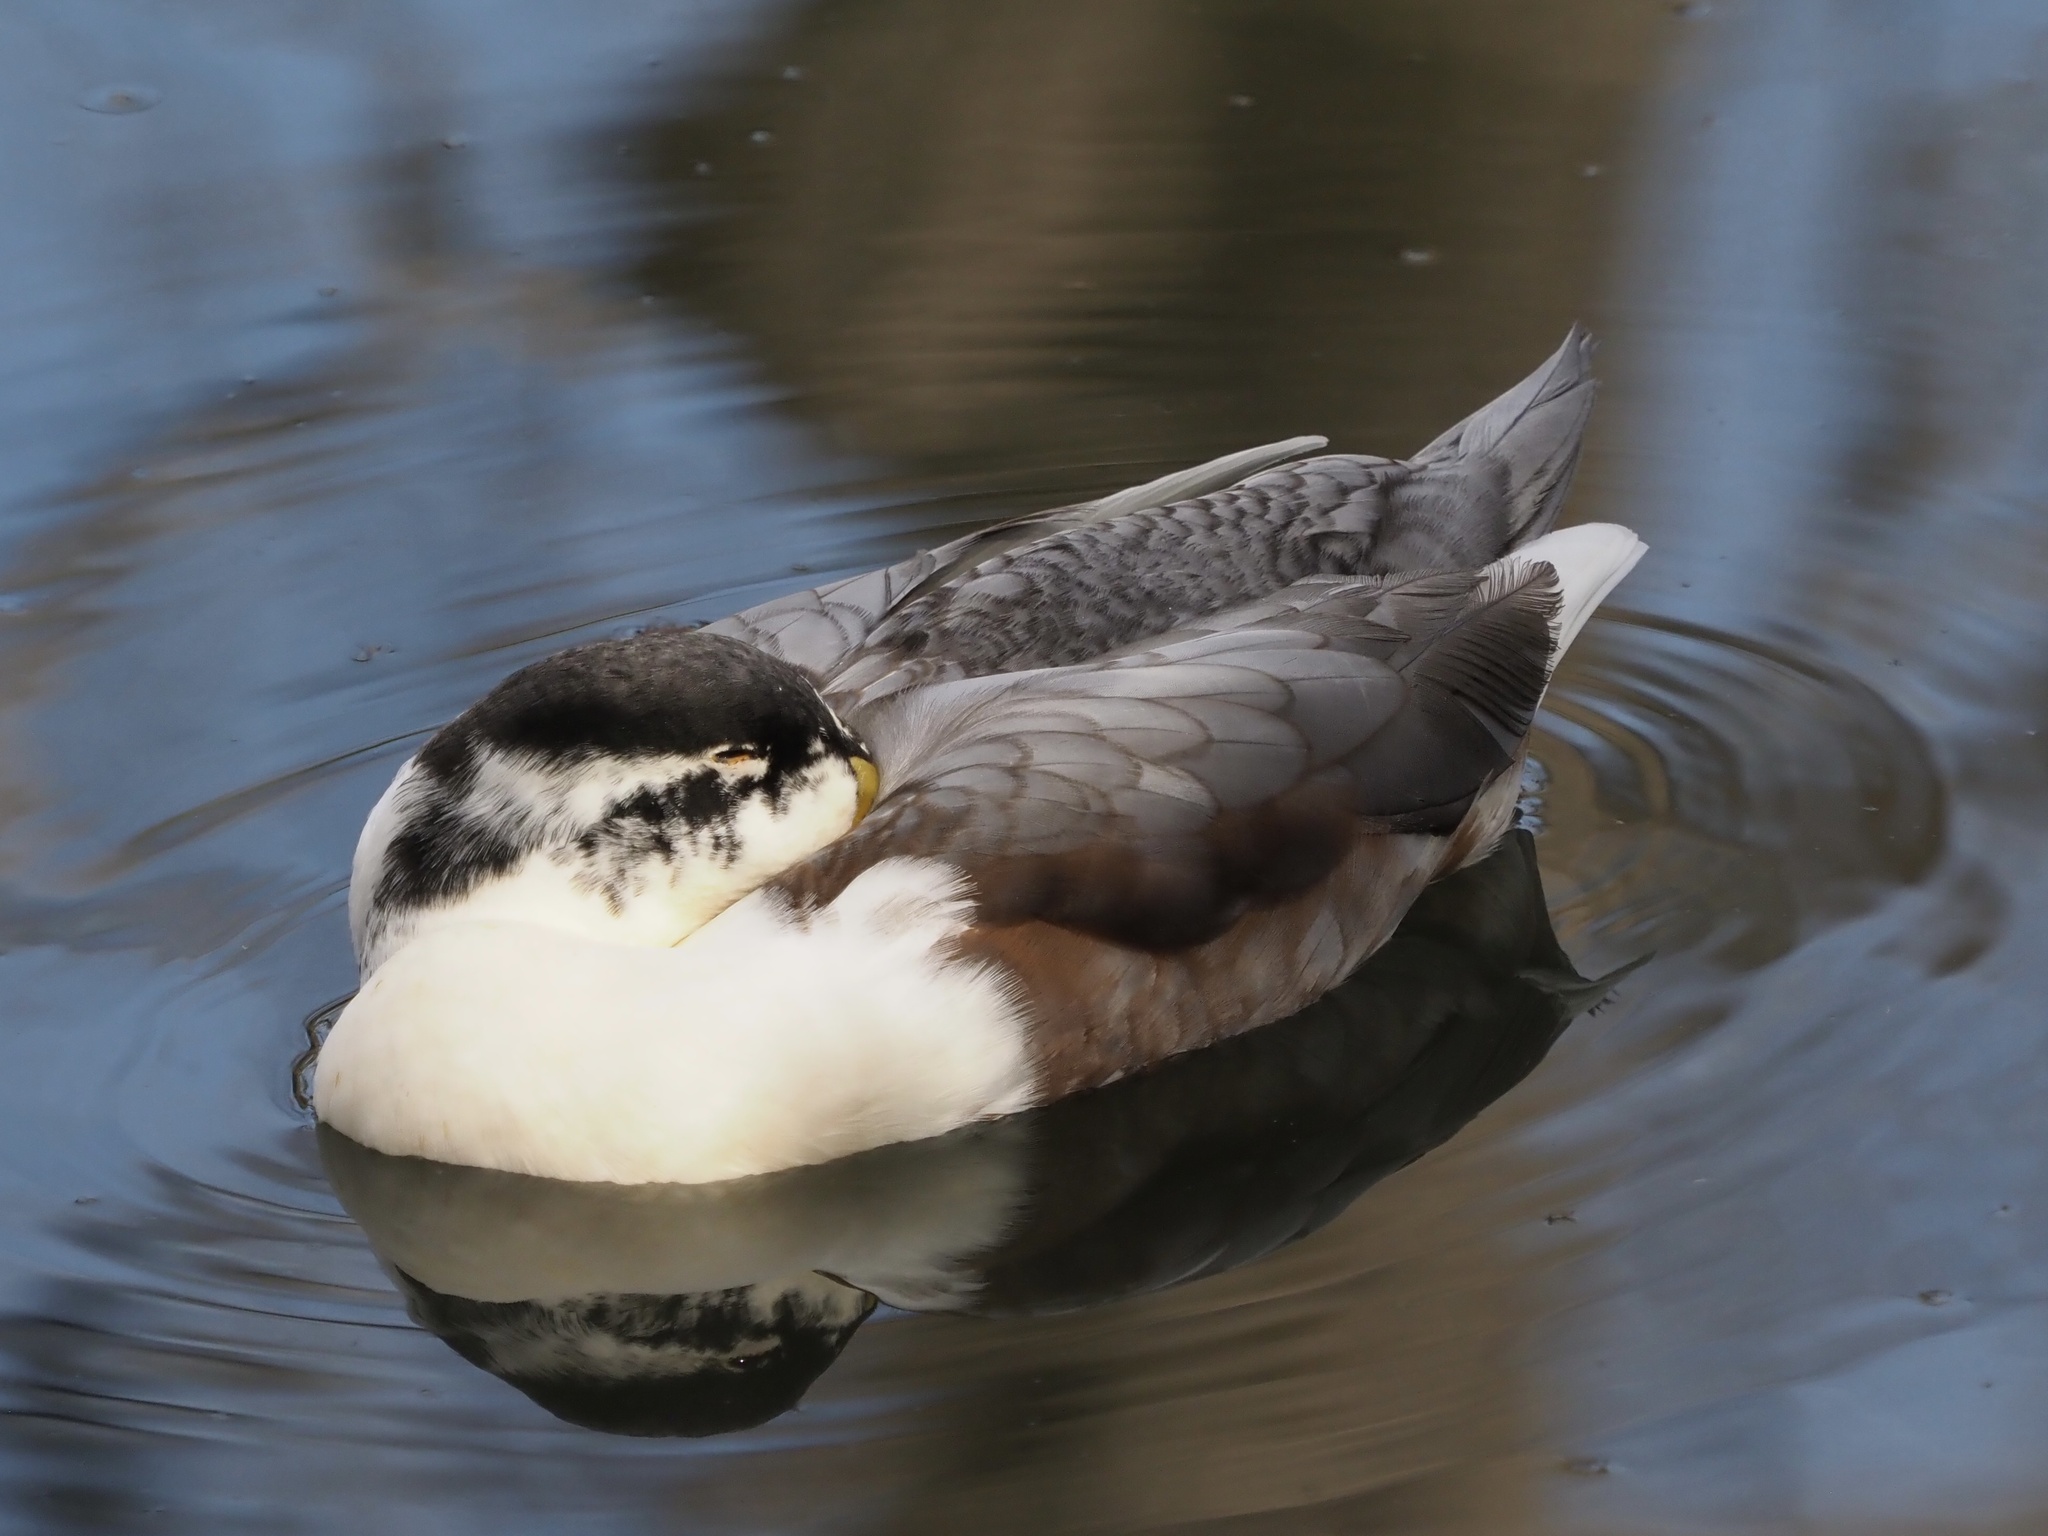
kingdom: Animalia
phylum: Chordata
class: Aves
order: Anseriformes
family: Anatidae
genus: Anas
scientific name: Anas platyrhynchos
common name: Mallard
